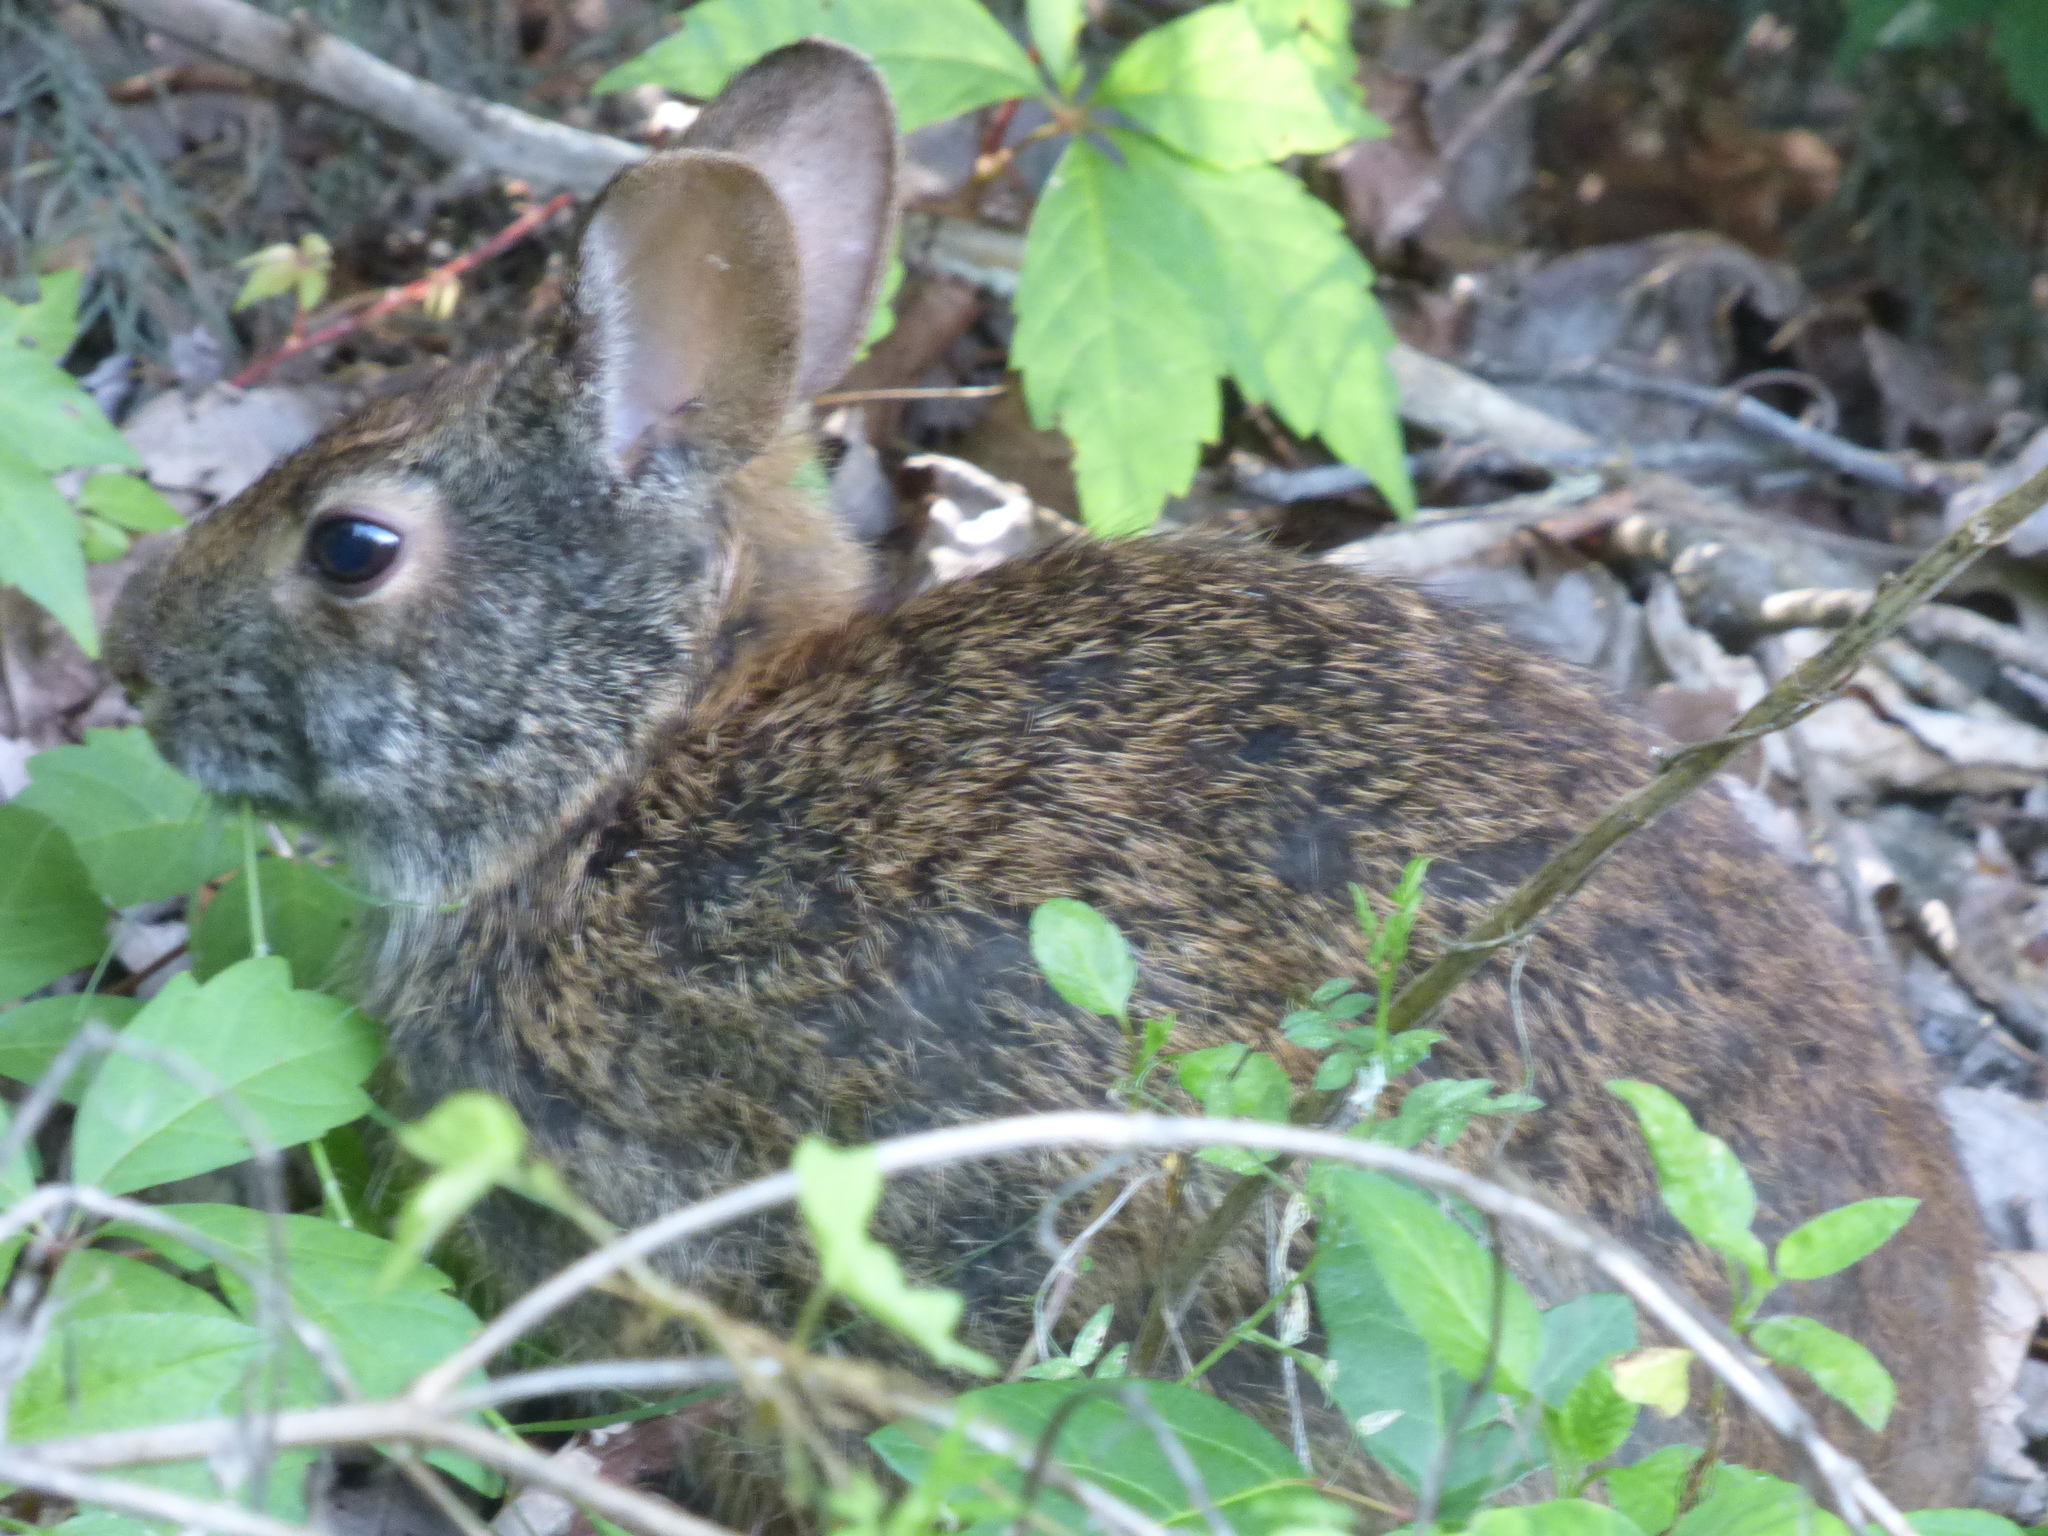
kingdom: Animalia
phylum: Chordata
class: Mammalia
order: Lagomorpha
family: Leporidae
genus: Sylvilagus
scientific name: Sylvilagus palustris
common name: Marsh rabbit
